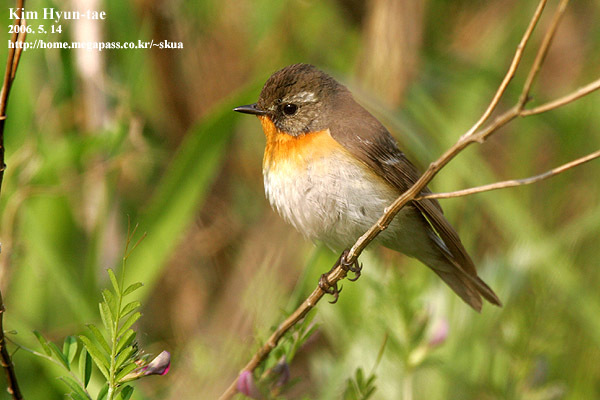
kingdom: Animalia
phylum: Chordata
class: Aves
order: Passeriformes
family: Muscicapidae
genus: Ficedula
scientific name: Ficedula mugimaki
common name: Mugimaki flycatcher
